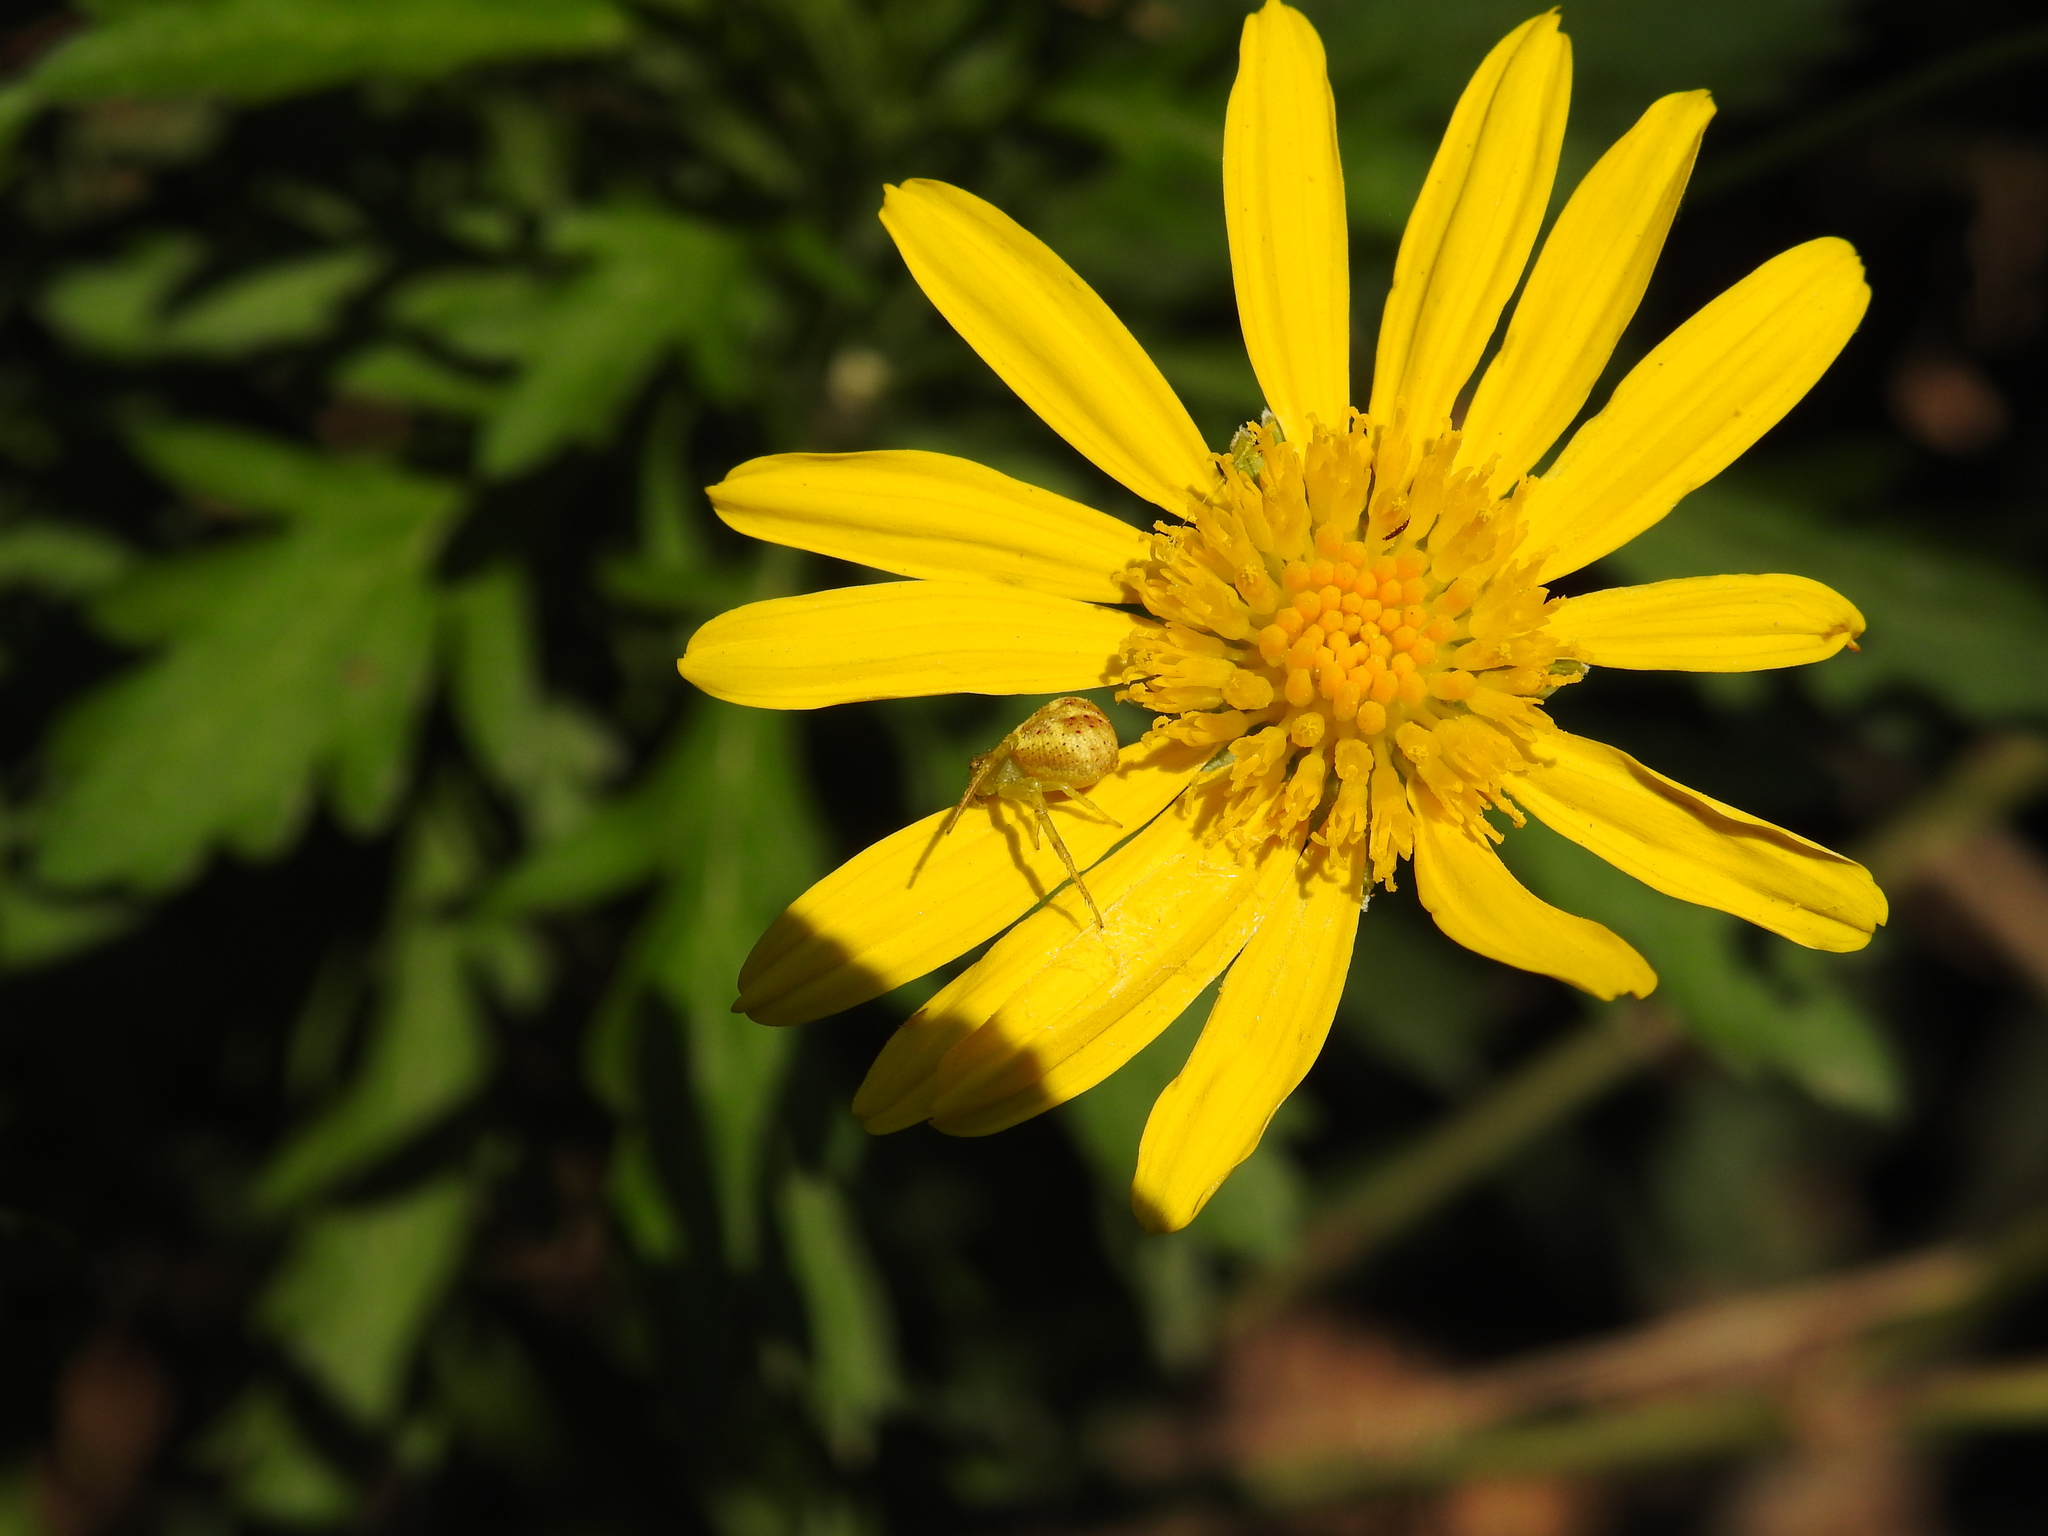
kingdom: Animalia
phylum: Arthropoda
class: Arachnida
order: Araneae
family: Thomisidae
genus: Misumenops
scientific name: Misumenops
